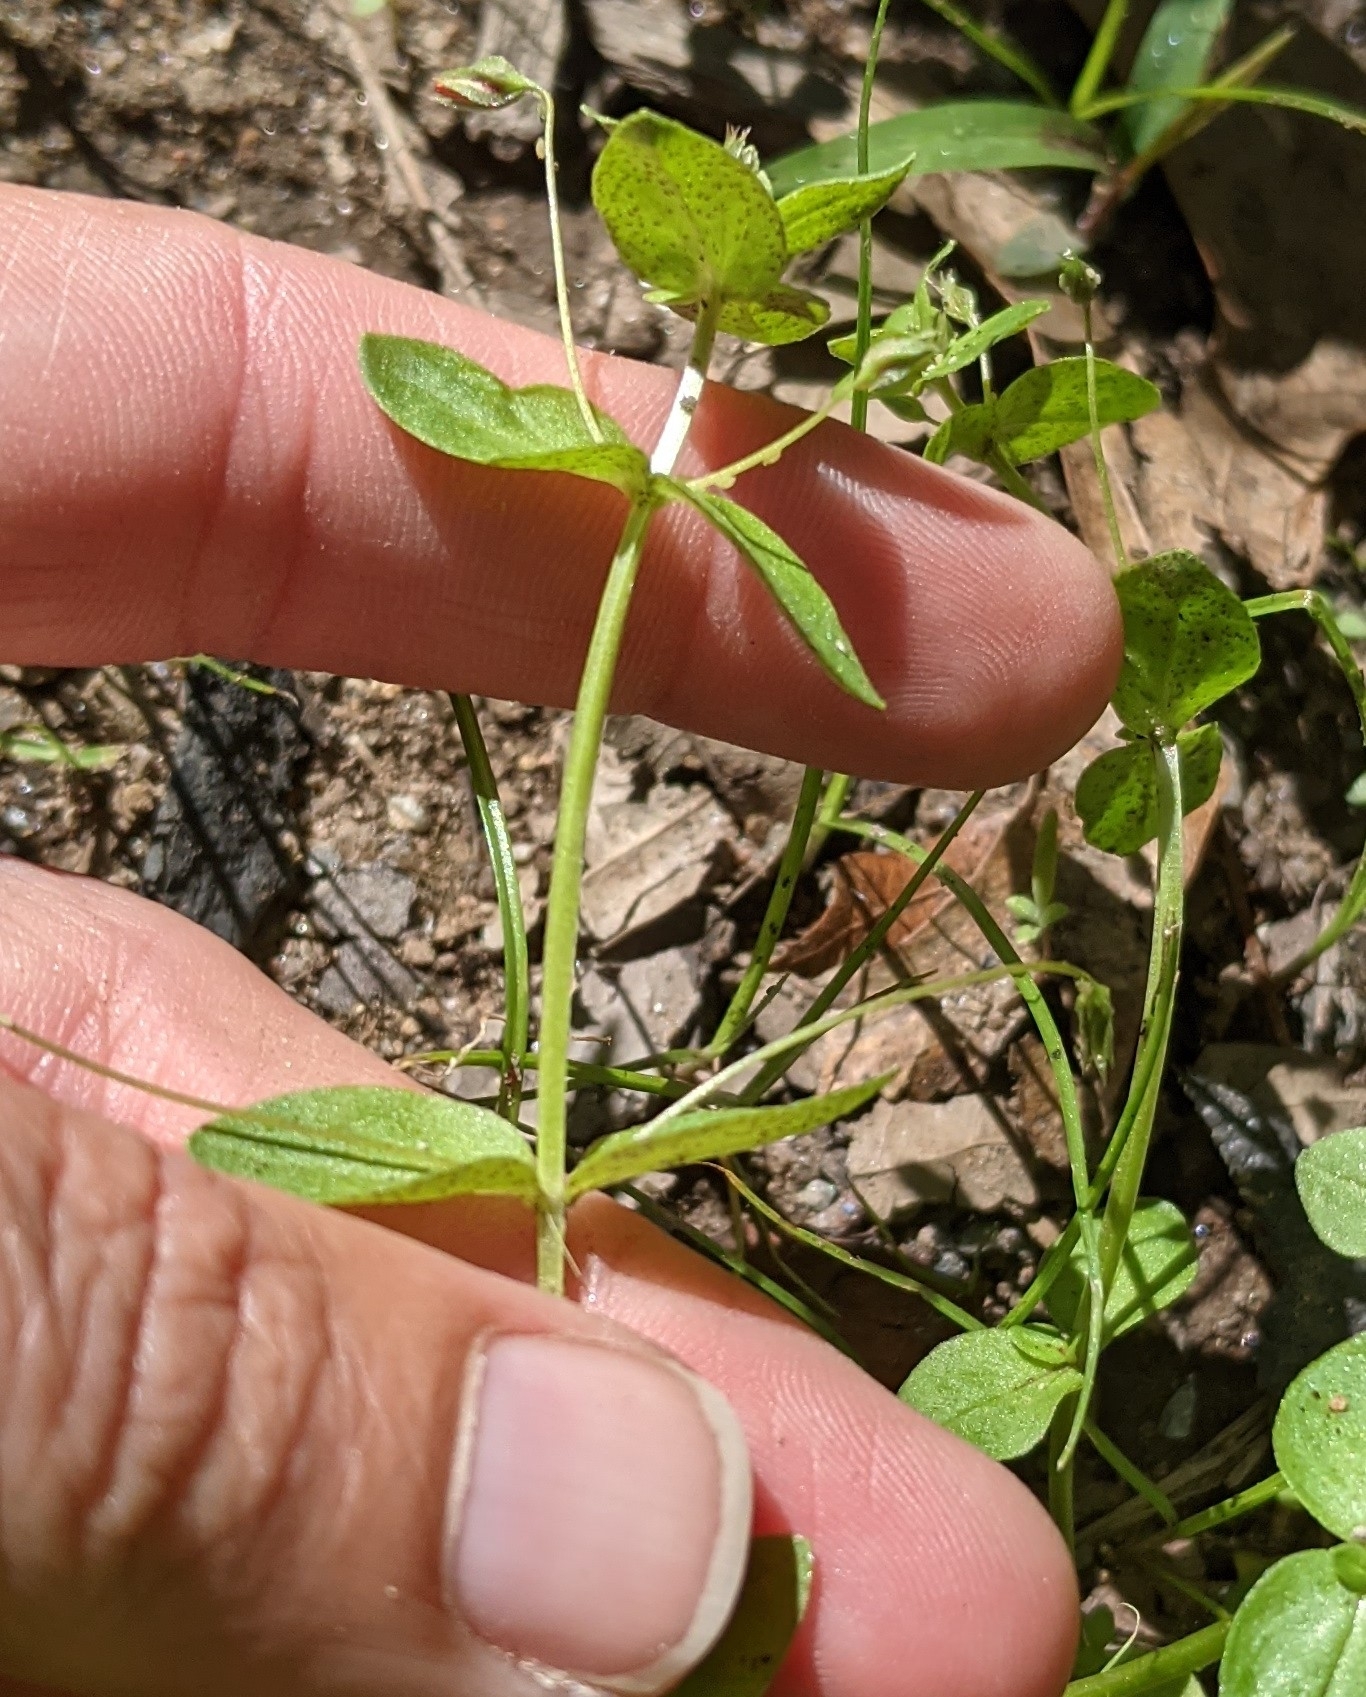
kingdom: Plantae
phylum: Tracheophyta
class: Magnoliopsida
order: Ericales
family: Primulaceae
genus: Lysimachia
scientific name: Lysimachia arvensis
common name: Scarlet pimpernel
